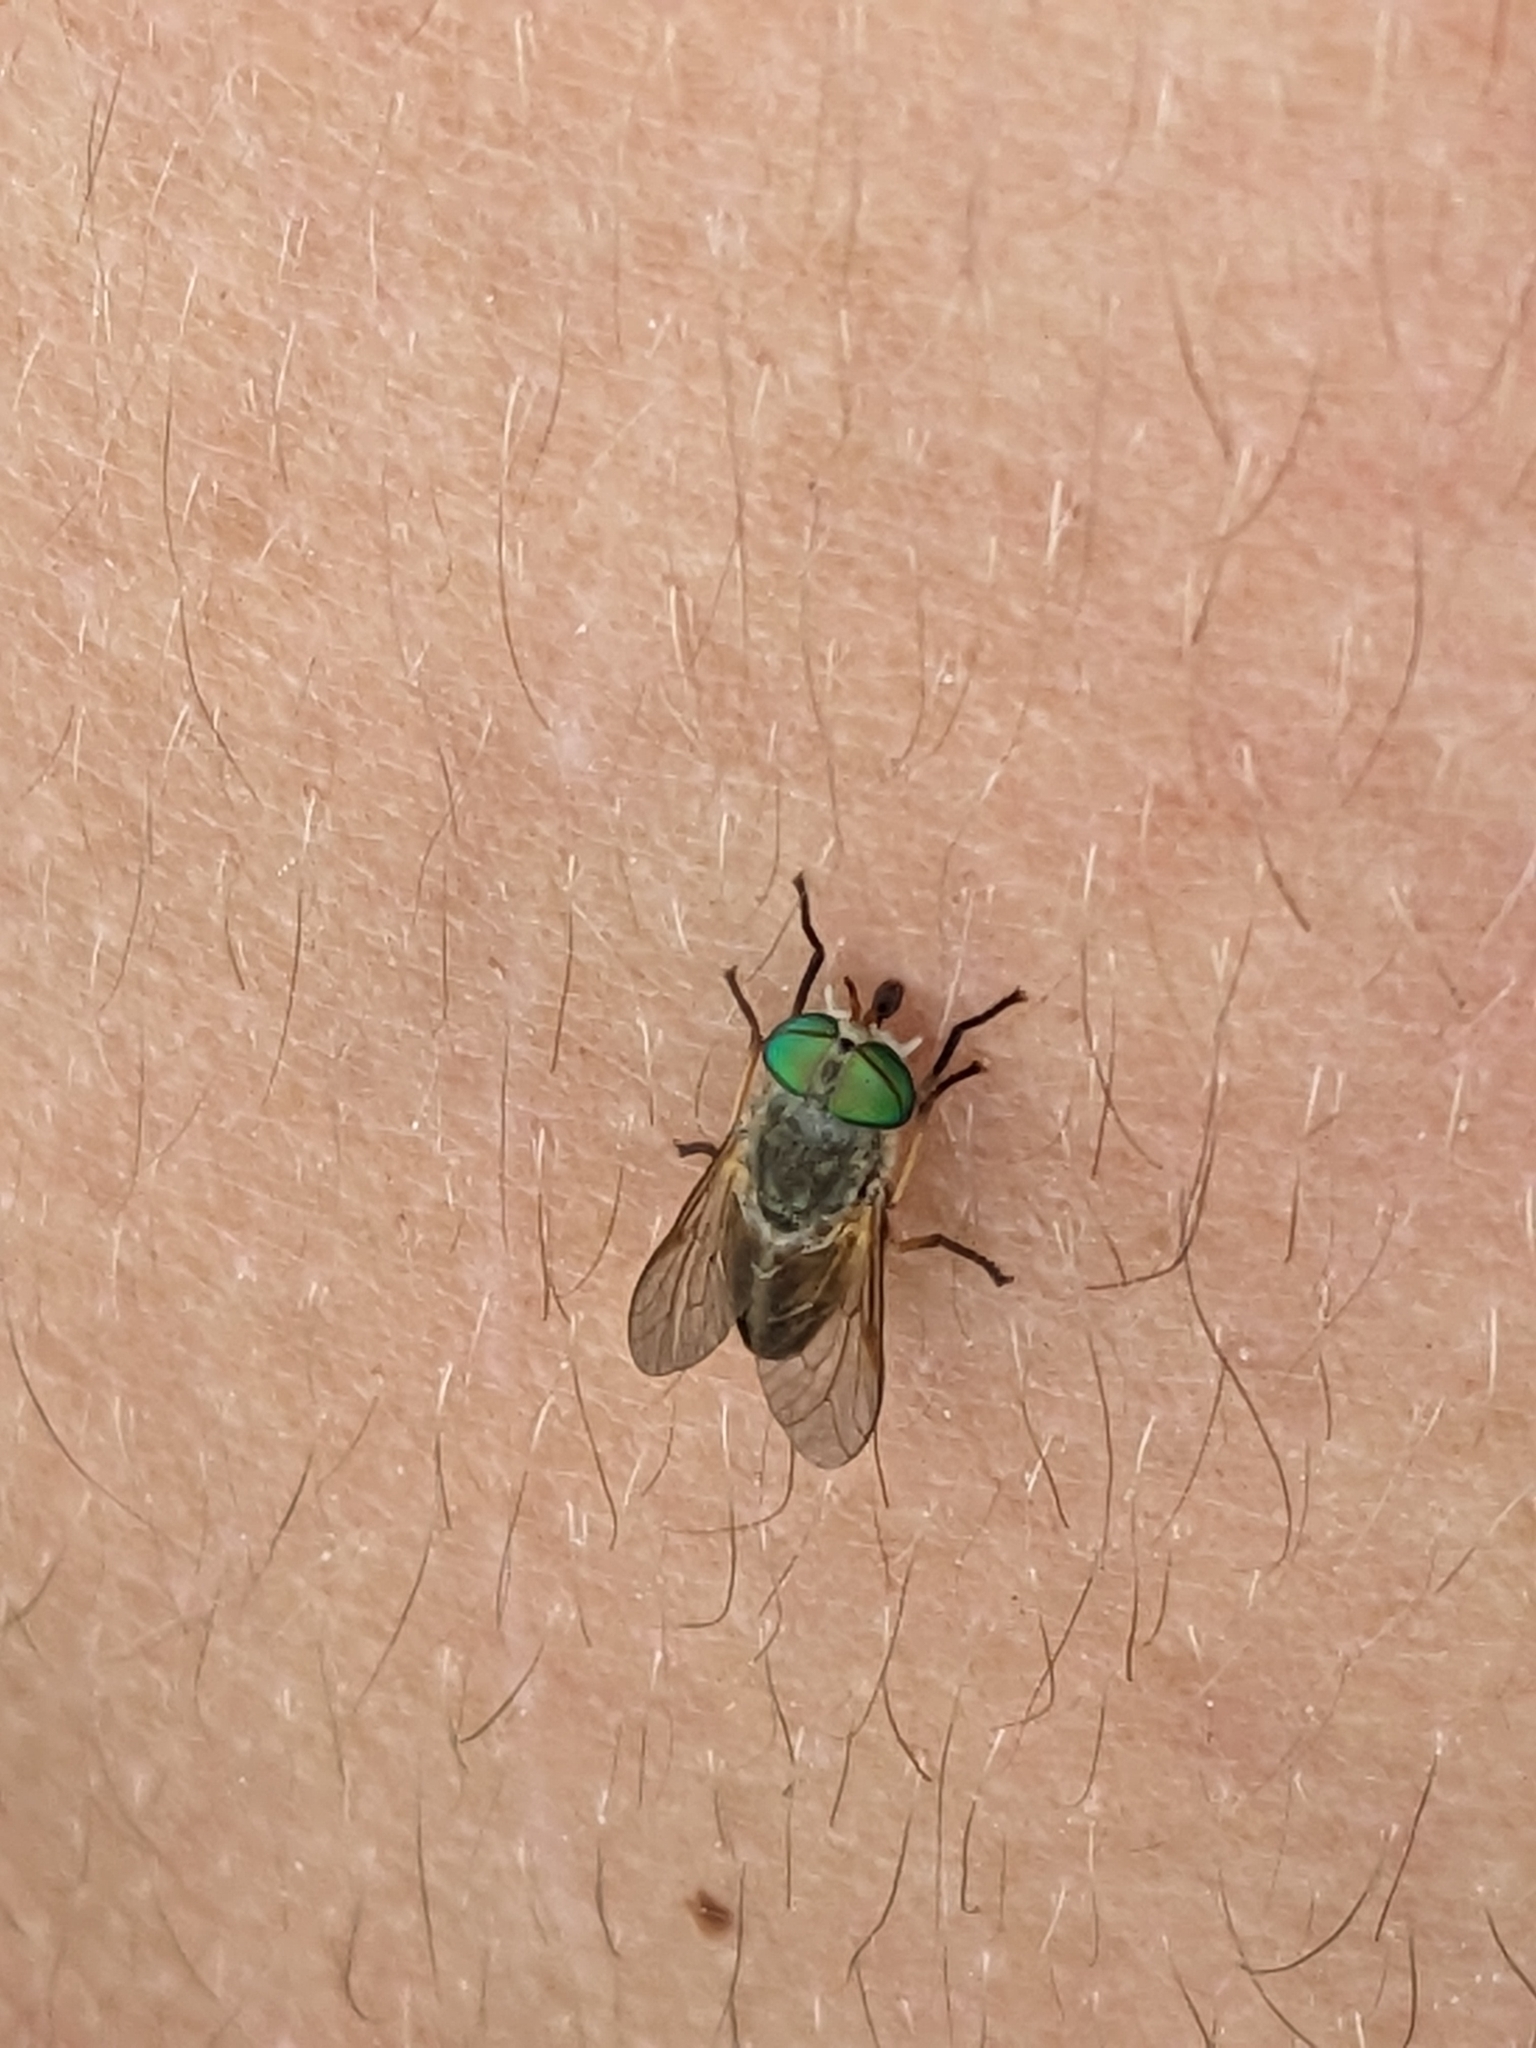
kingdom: Animalia
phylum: Arthropoda
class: Insecta
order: Diptera
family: Tabanidae
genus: Tabanus
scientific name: Tabanus
